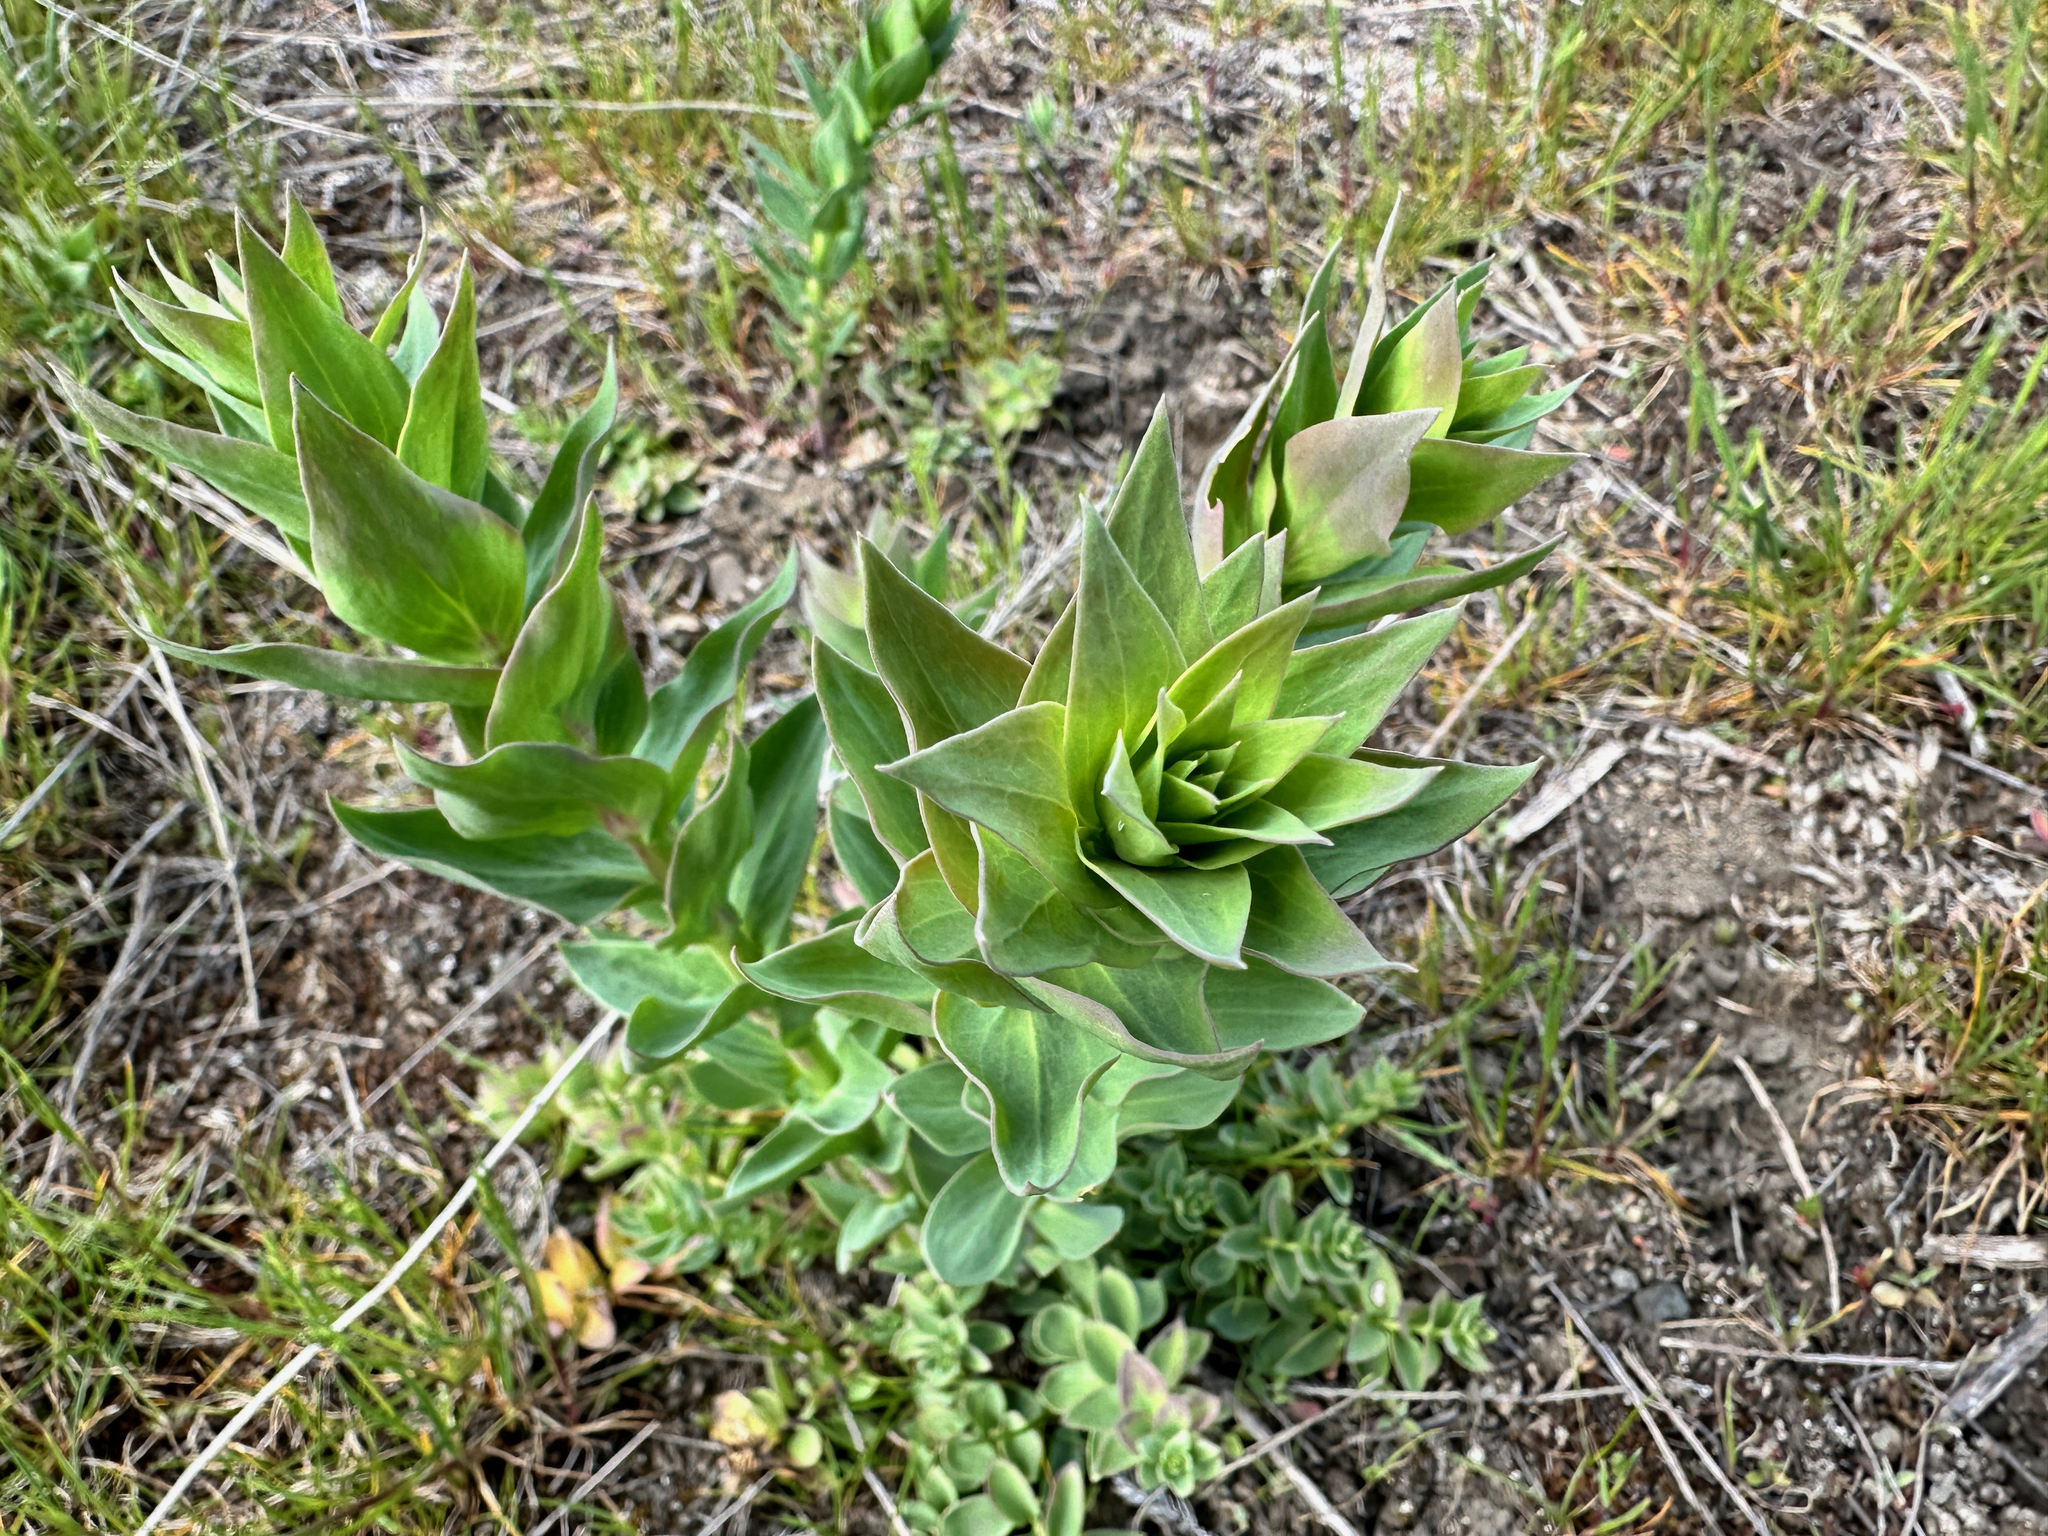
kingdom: Plantae
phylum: Tracheophyta
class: Magnoliopsida
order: Lamiales
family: Plantaginaceae
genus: Linaria
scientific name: Linaria dalmatica
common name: Dalmatian toadflax
